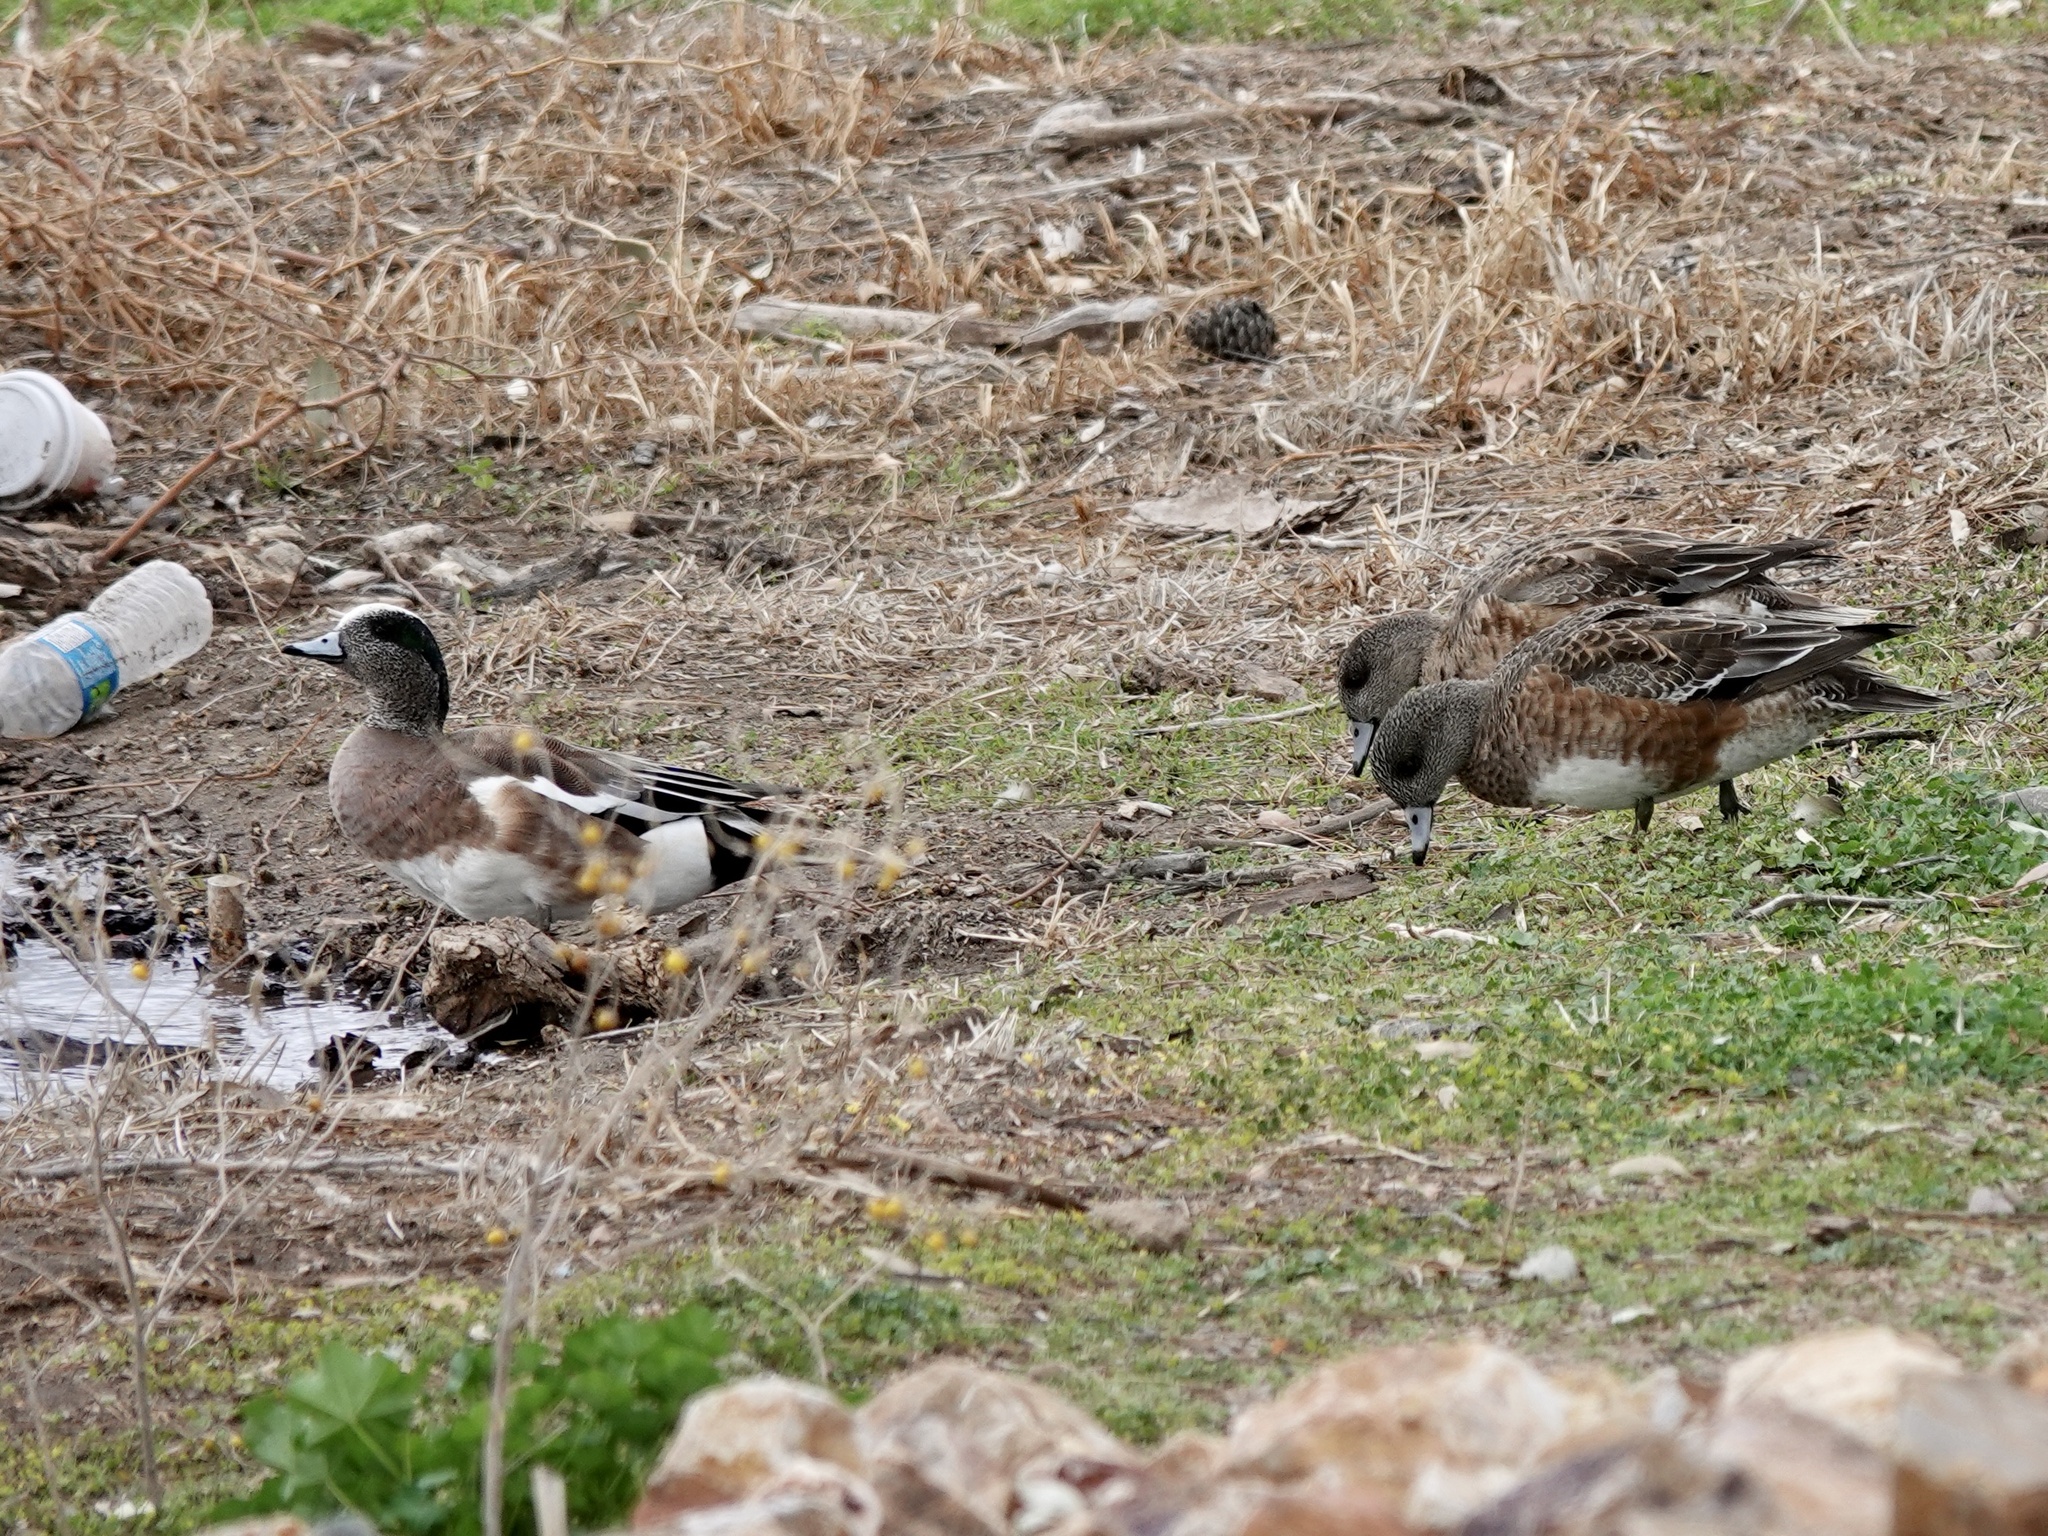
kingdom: Animalia
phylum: Chordata
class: Aves
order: Anseriformes
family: Anatidae
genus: Mareca
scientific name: Mareca americana
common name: American wigeon
